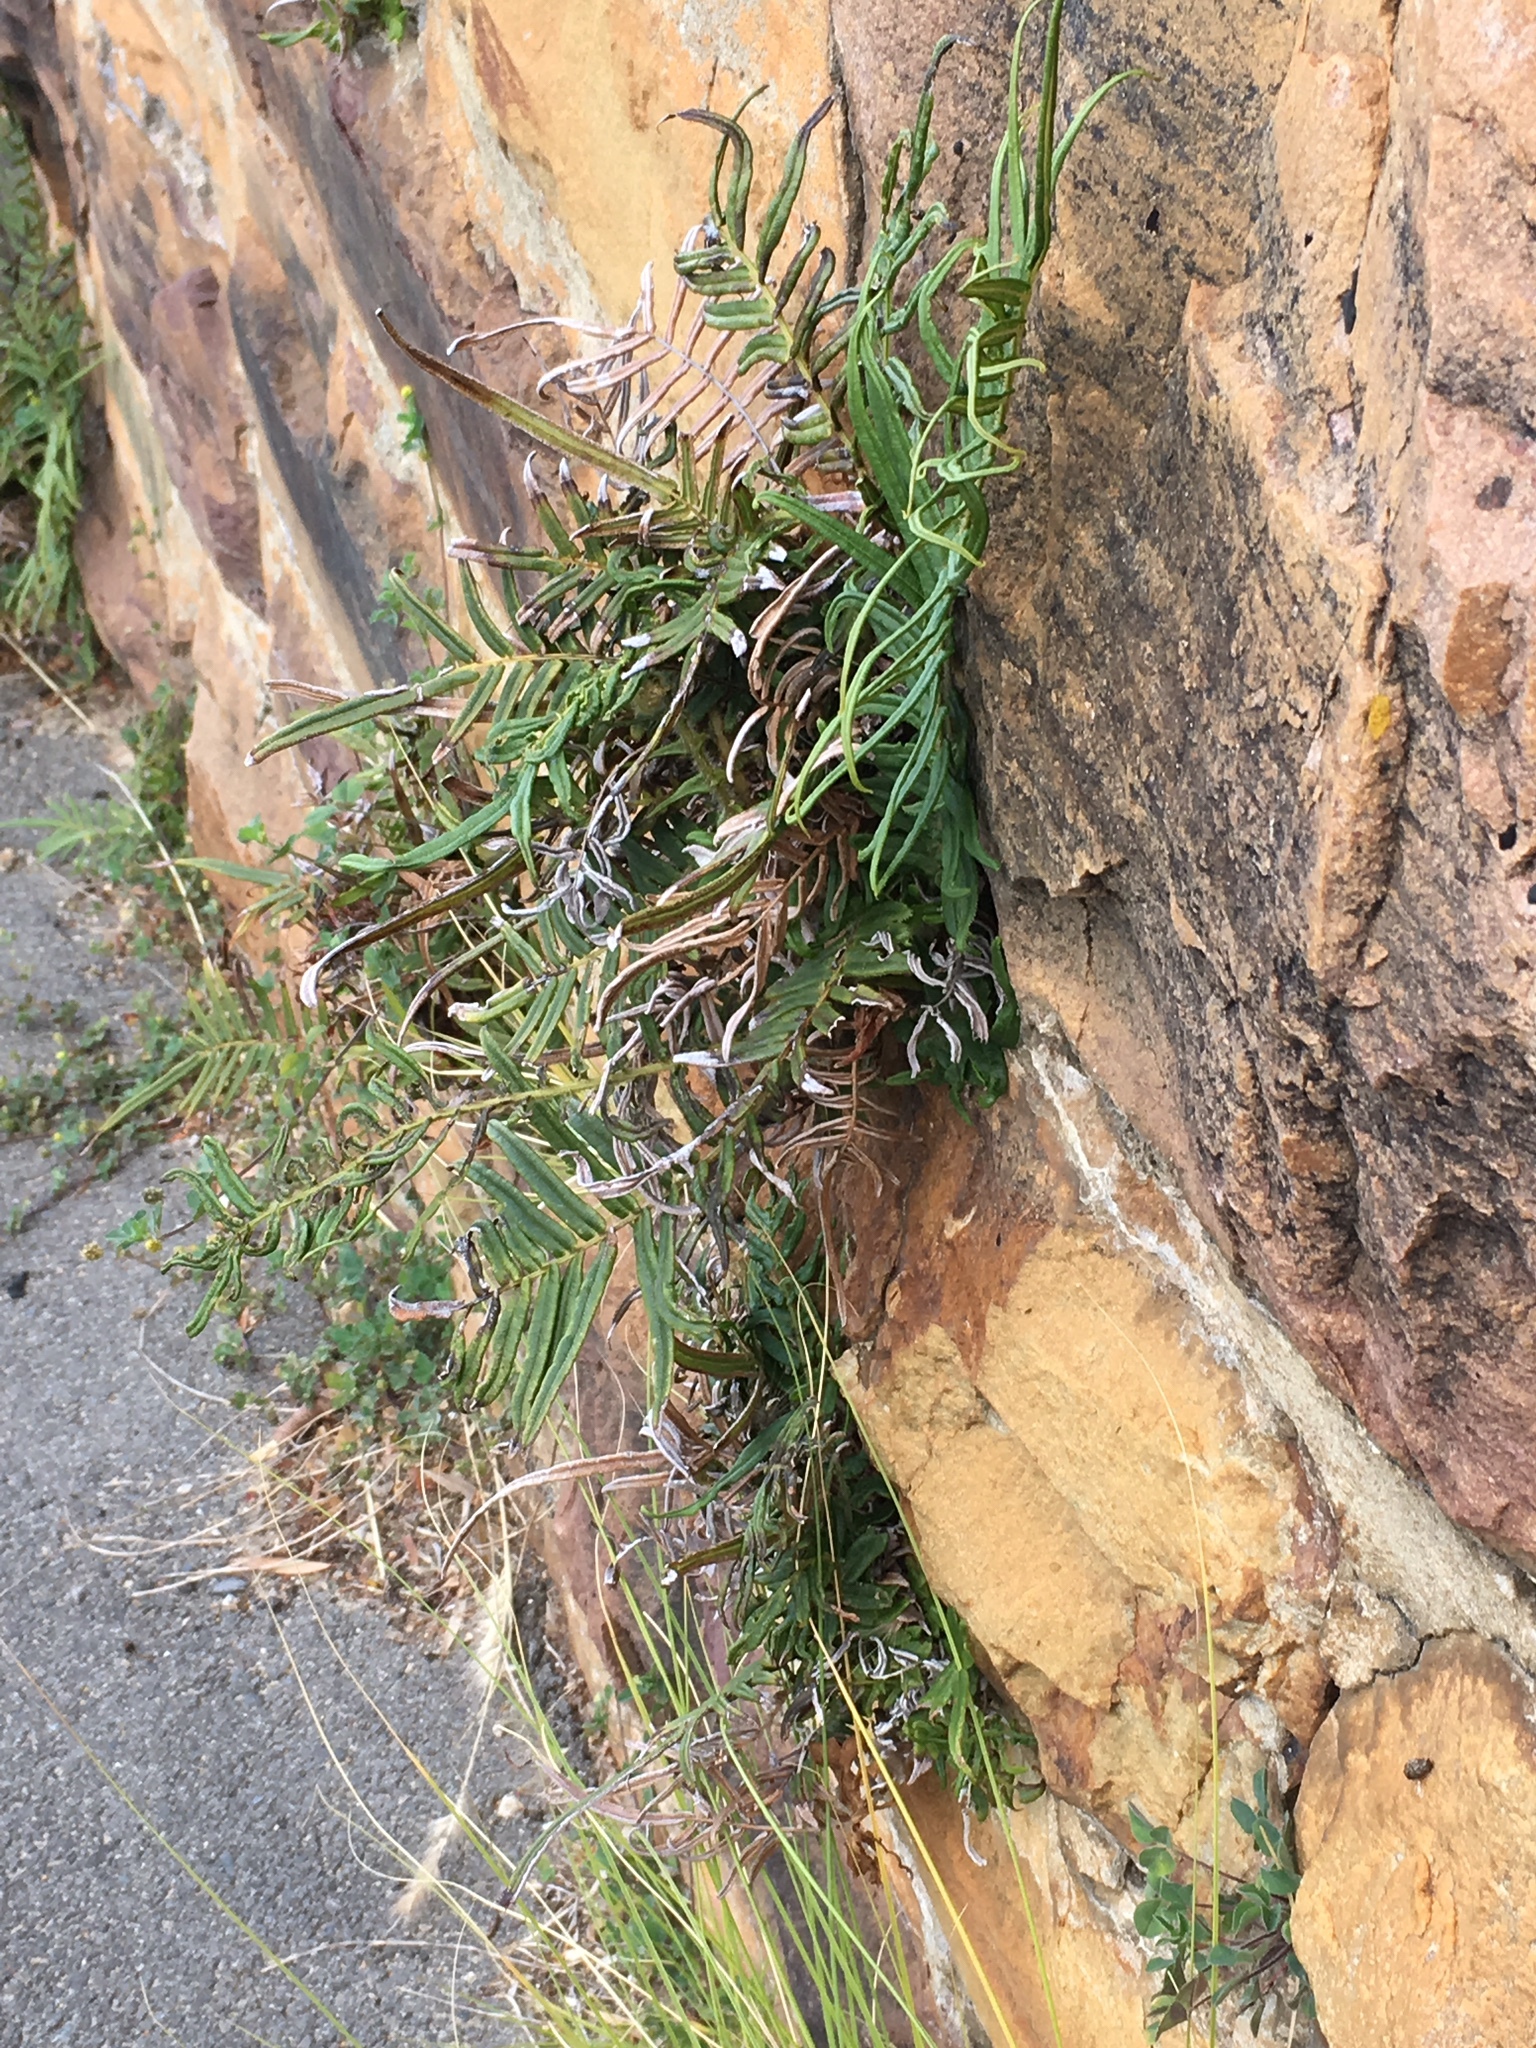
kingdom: Plantae
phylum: Tracheophyta
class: Polypodiopsida
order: Polypodiales
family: Pteridaceae
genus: Pteris
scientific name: Pteris vittata
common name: Ladder brake
